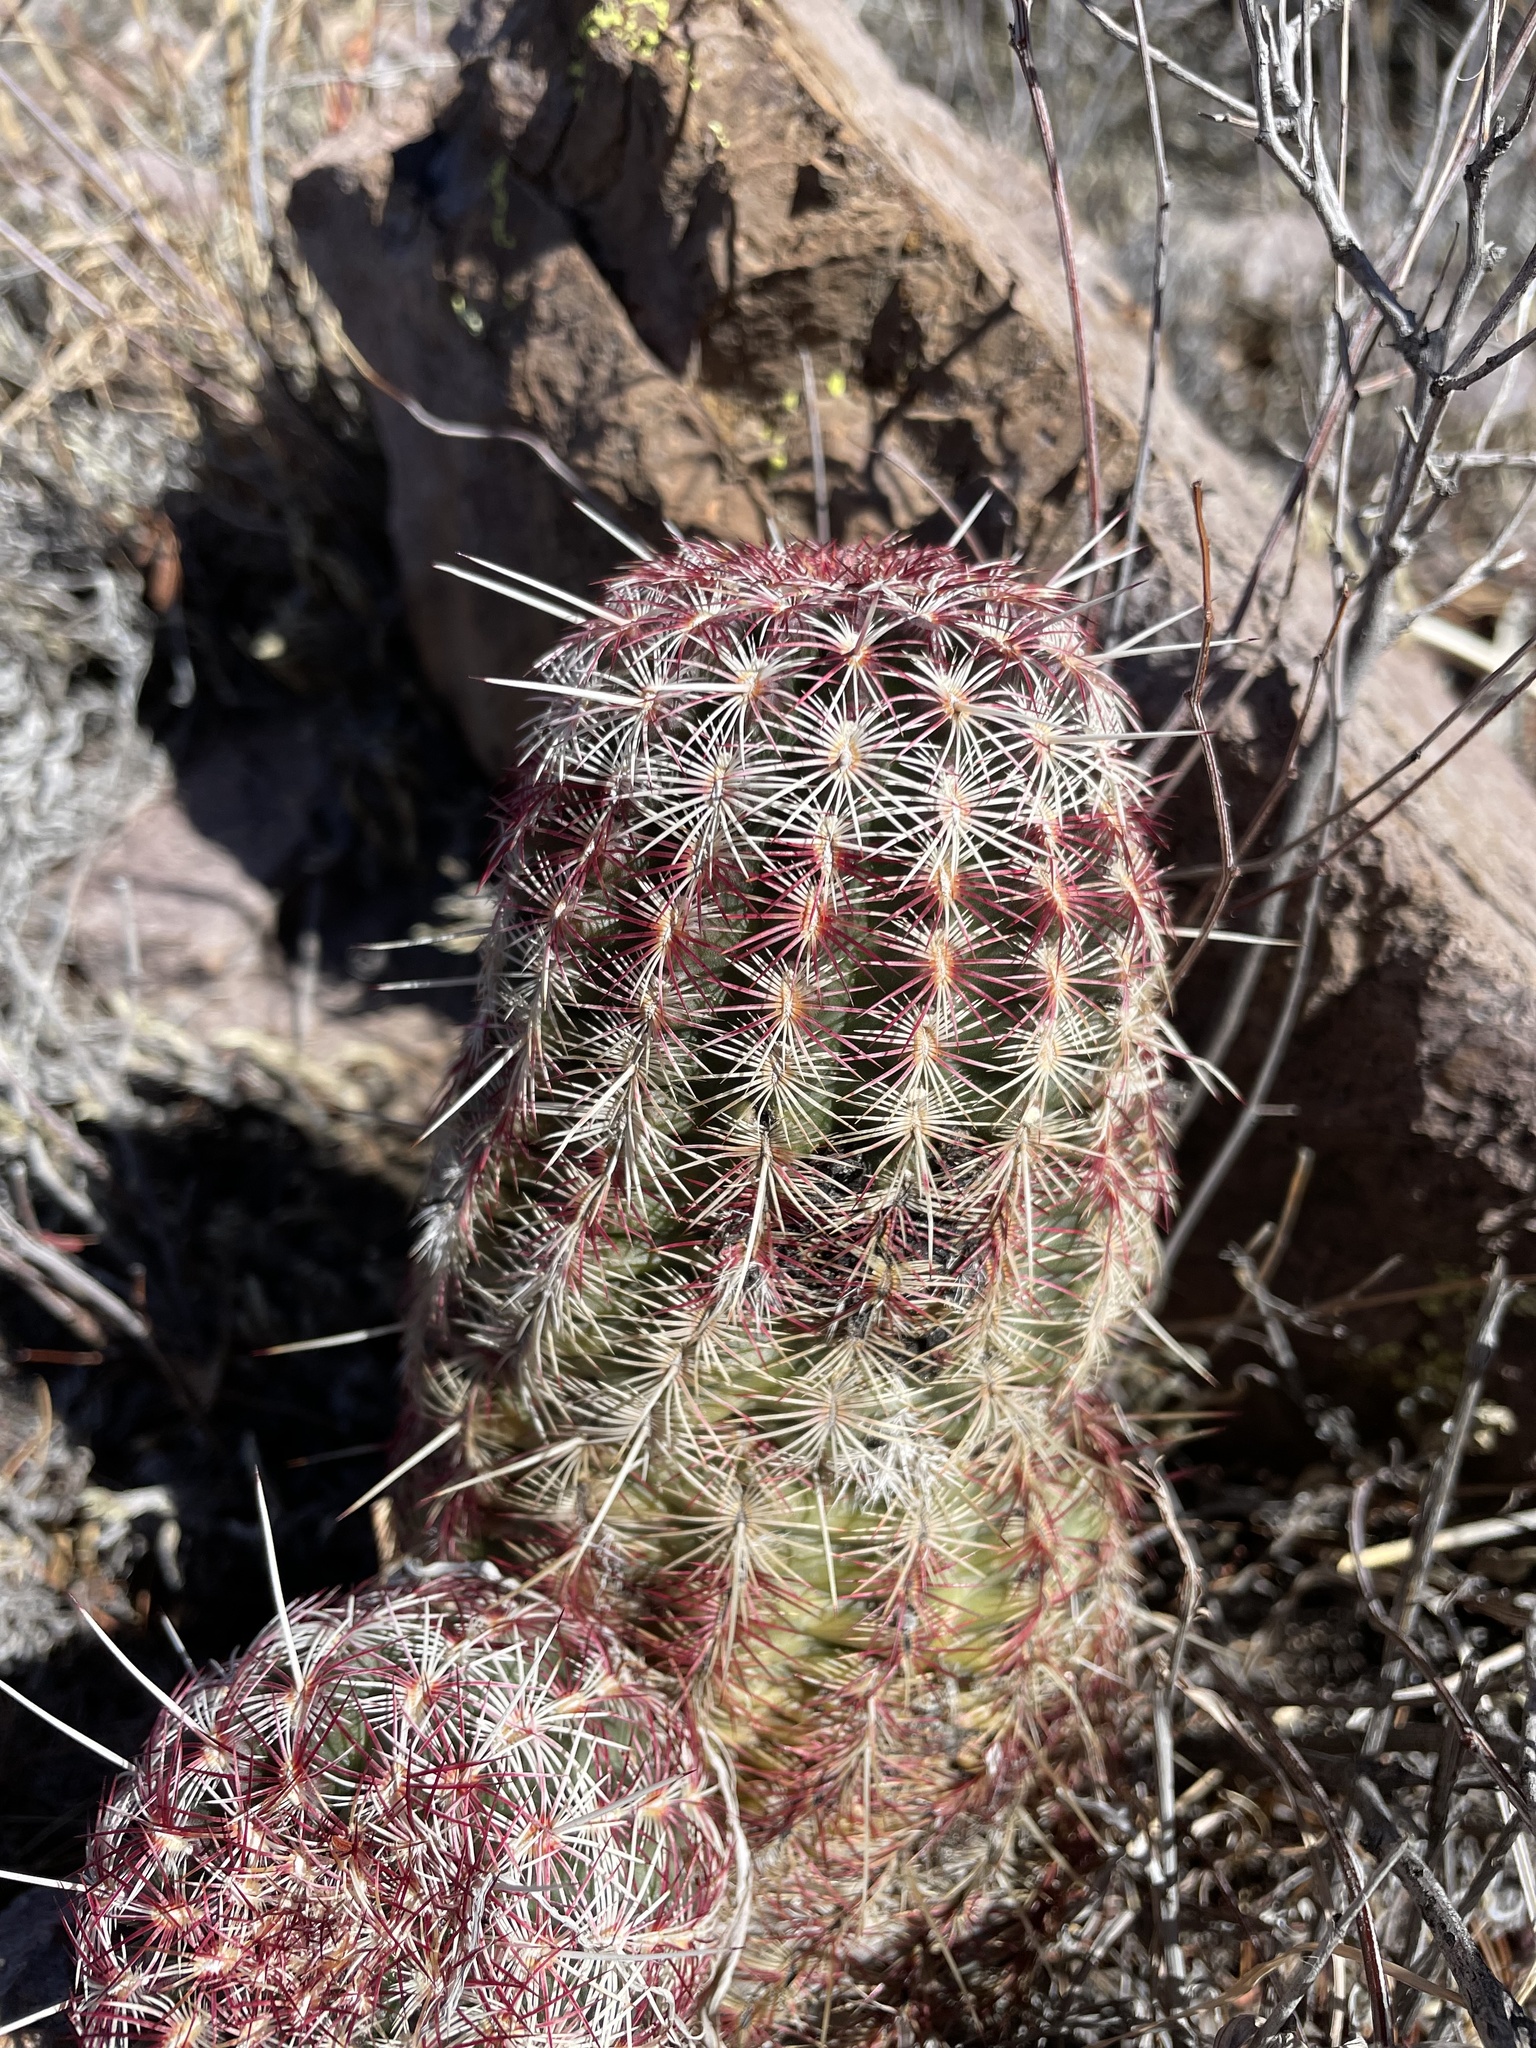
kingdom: Plantae
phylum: Tracheophyta
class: Magnoliopsida
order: Caryophyllales
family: Cactaceae
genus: Echinocereus
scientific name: Echinocereus viridiflorus
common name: Nylon hedgehog cactus
